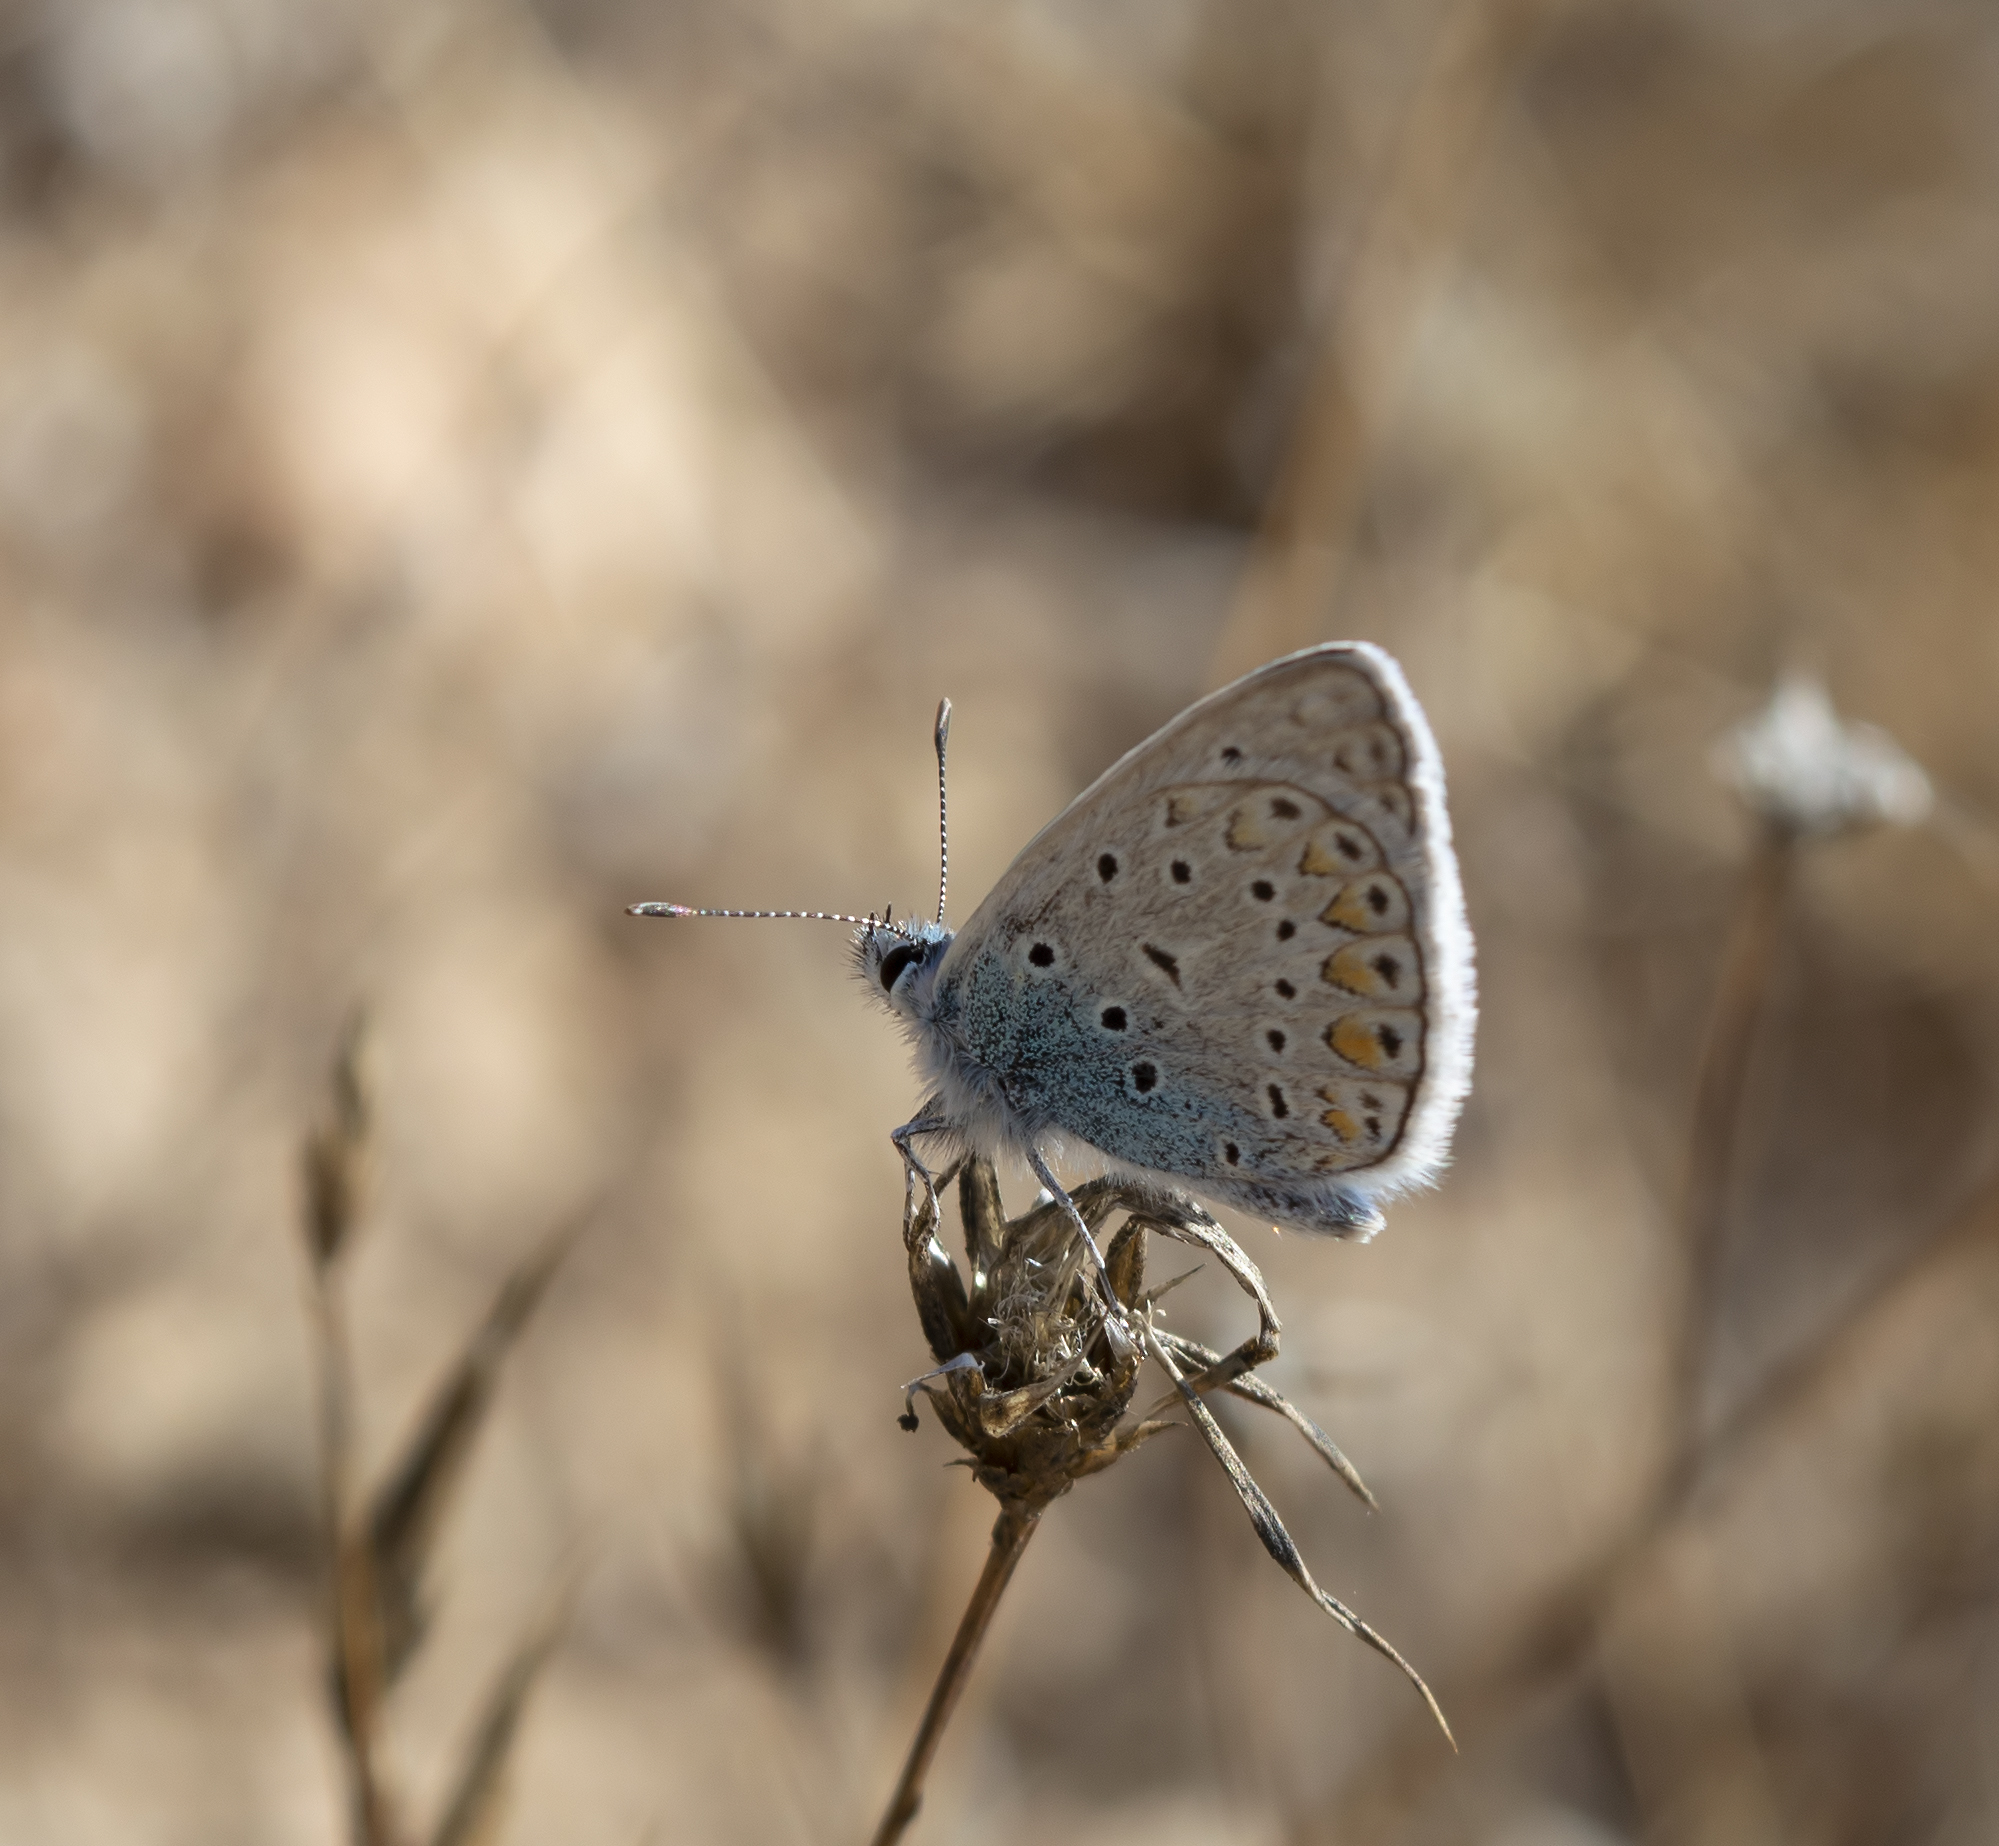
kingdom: Animalia
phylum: Arthropoda
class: Insecta
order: Lepidoptera
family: Lycaenidae
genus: Polyommatus
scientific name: Polyommatus icarus
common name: Common blue
